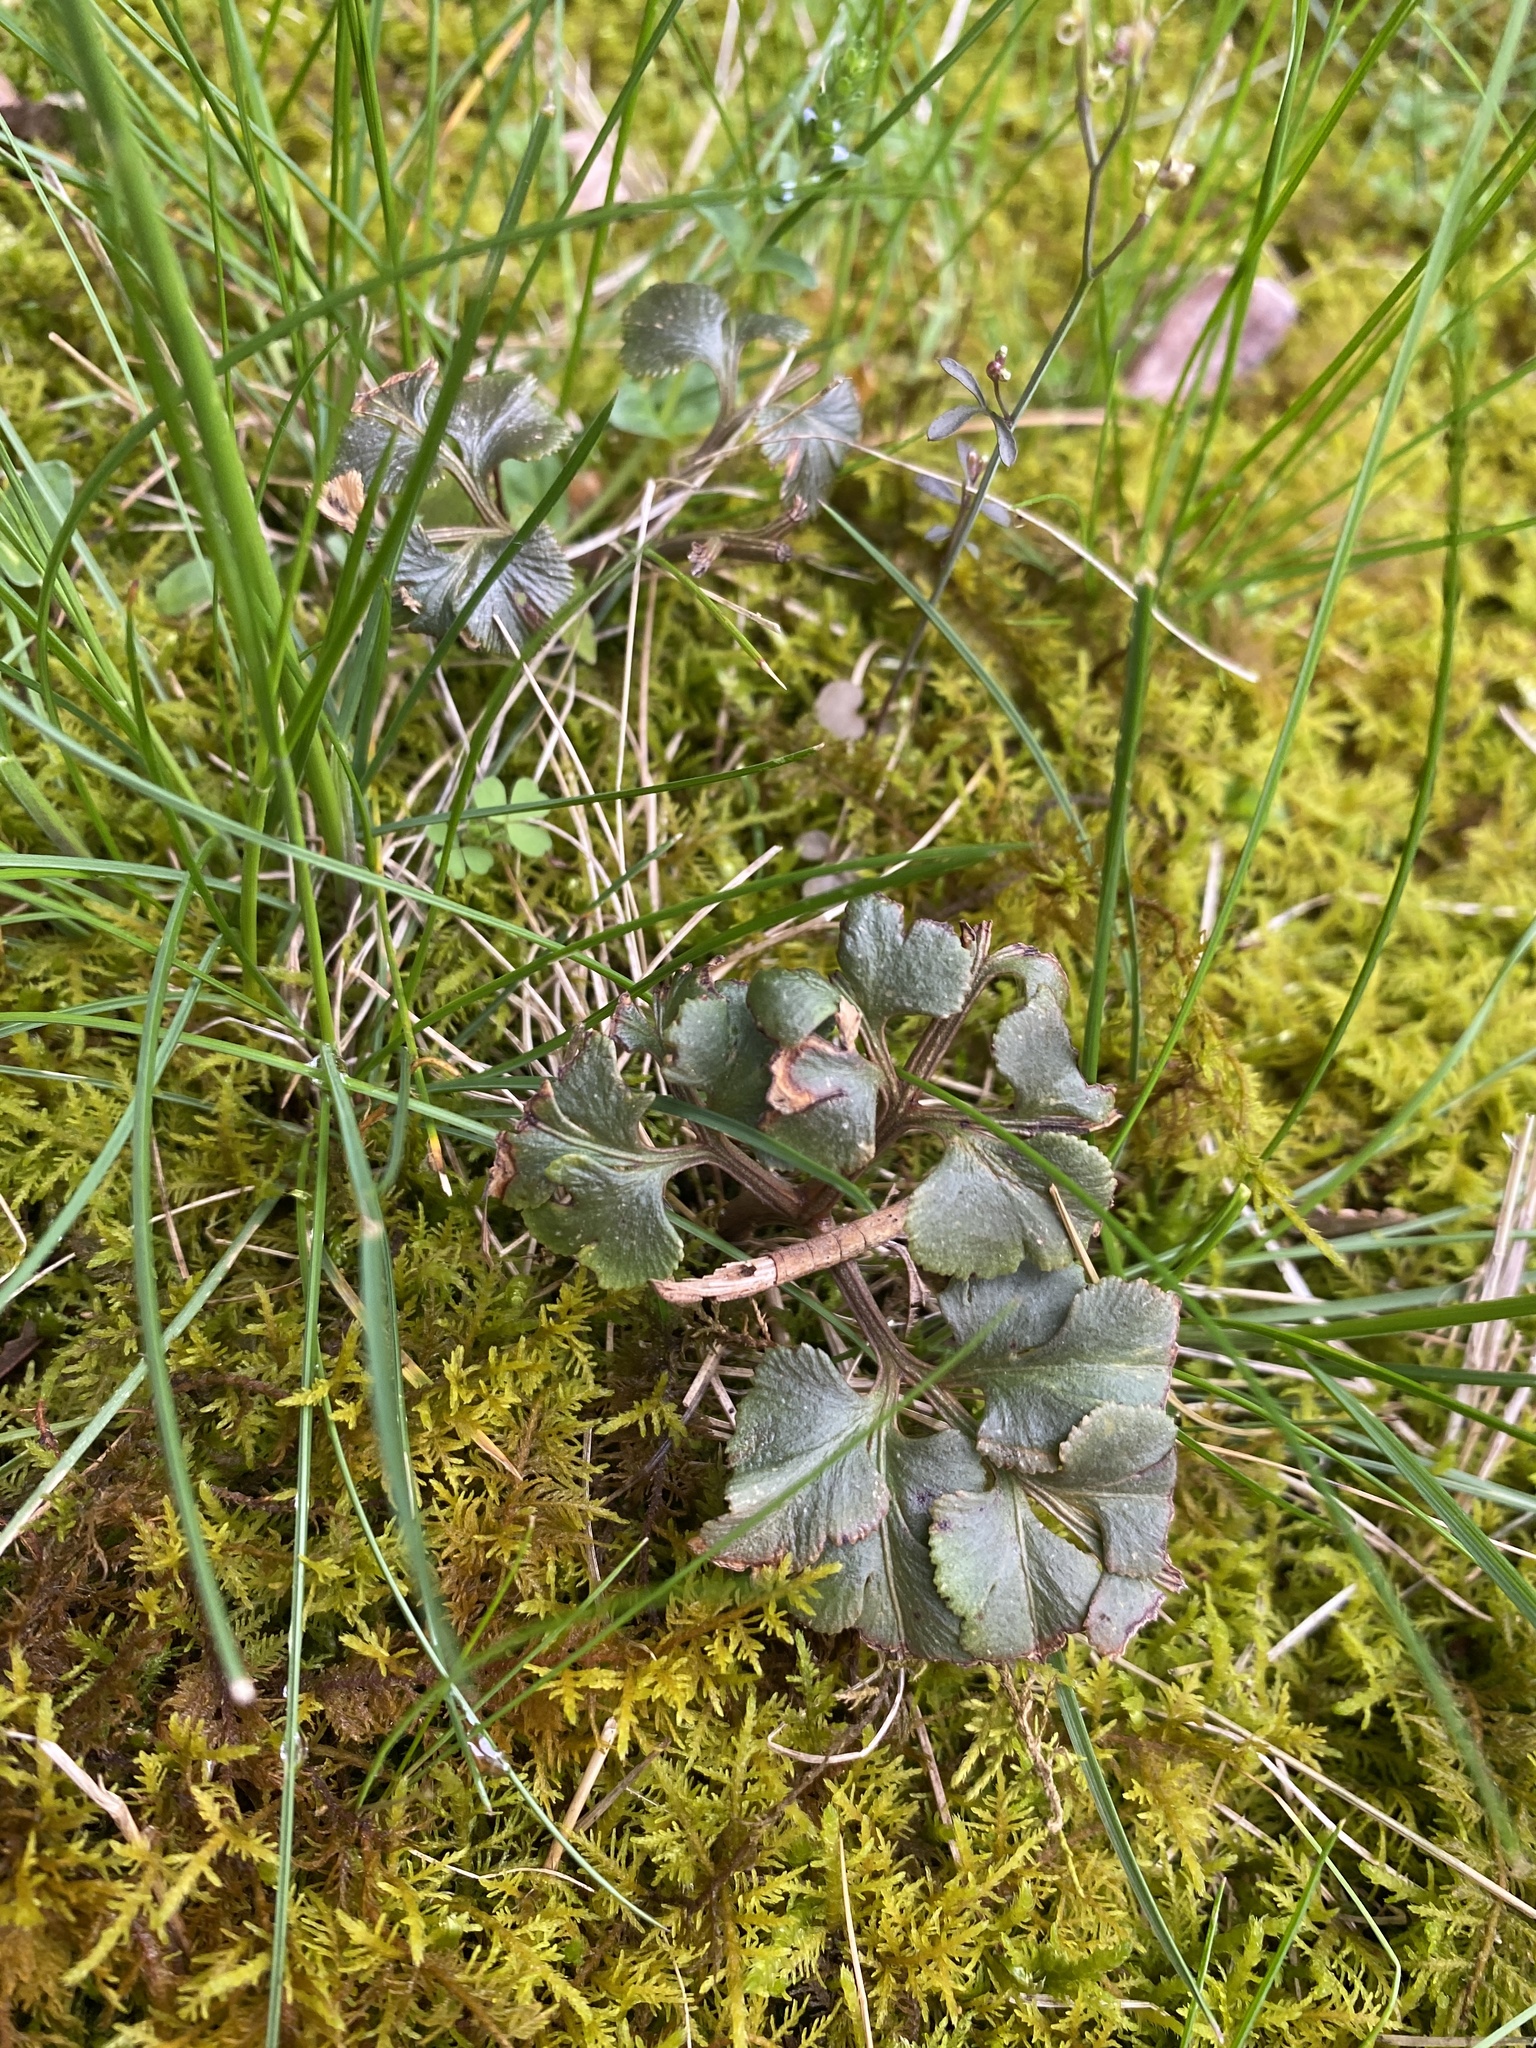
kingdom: Plantae
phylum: Tracheophyta
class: Polypodiopsida
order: Ophioglossales
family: Ophioglossaceae
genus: Sceptridium
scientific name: Sceptridium dissectum
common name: Cut-leaved grapefern
